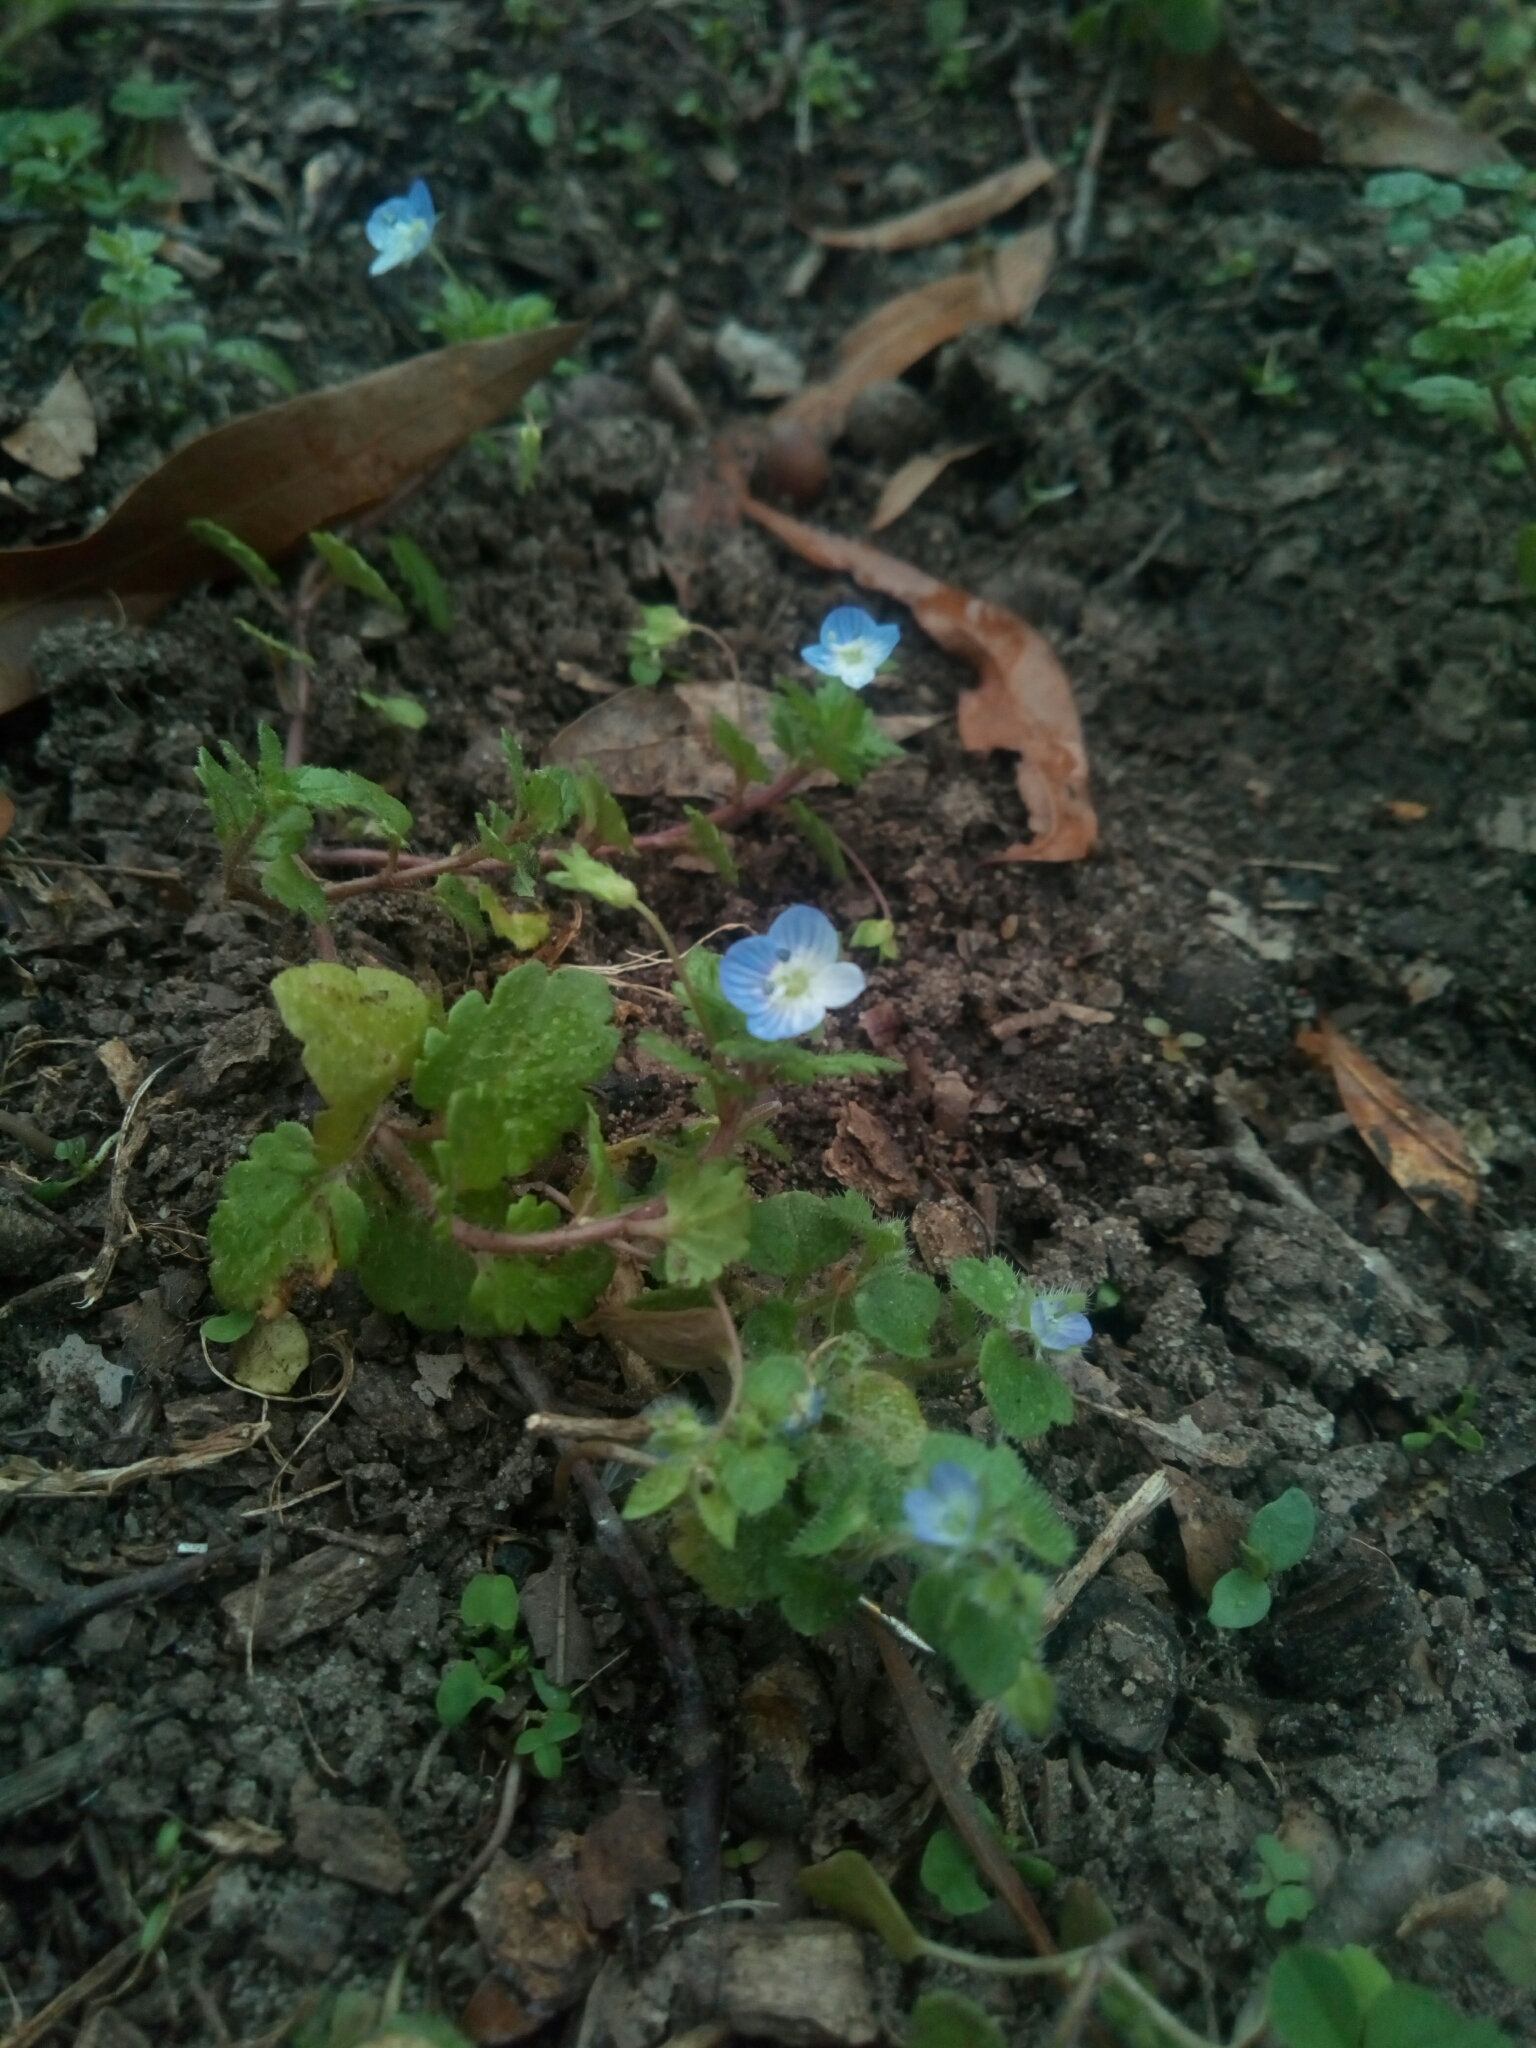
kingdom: Plantae
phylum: Tracheophyta
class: Magnoliopsida
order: Lamiales
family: Plantaginaceae
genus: Veronica
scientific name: Veronica persica
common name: Common field-speedwell
